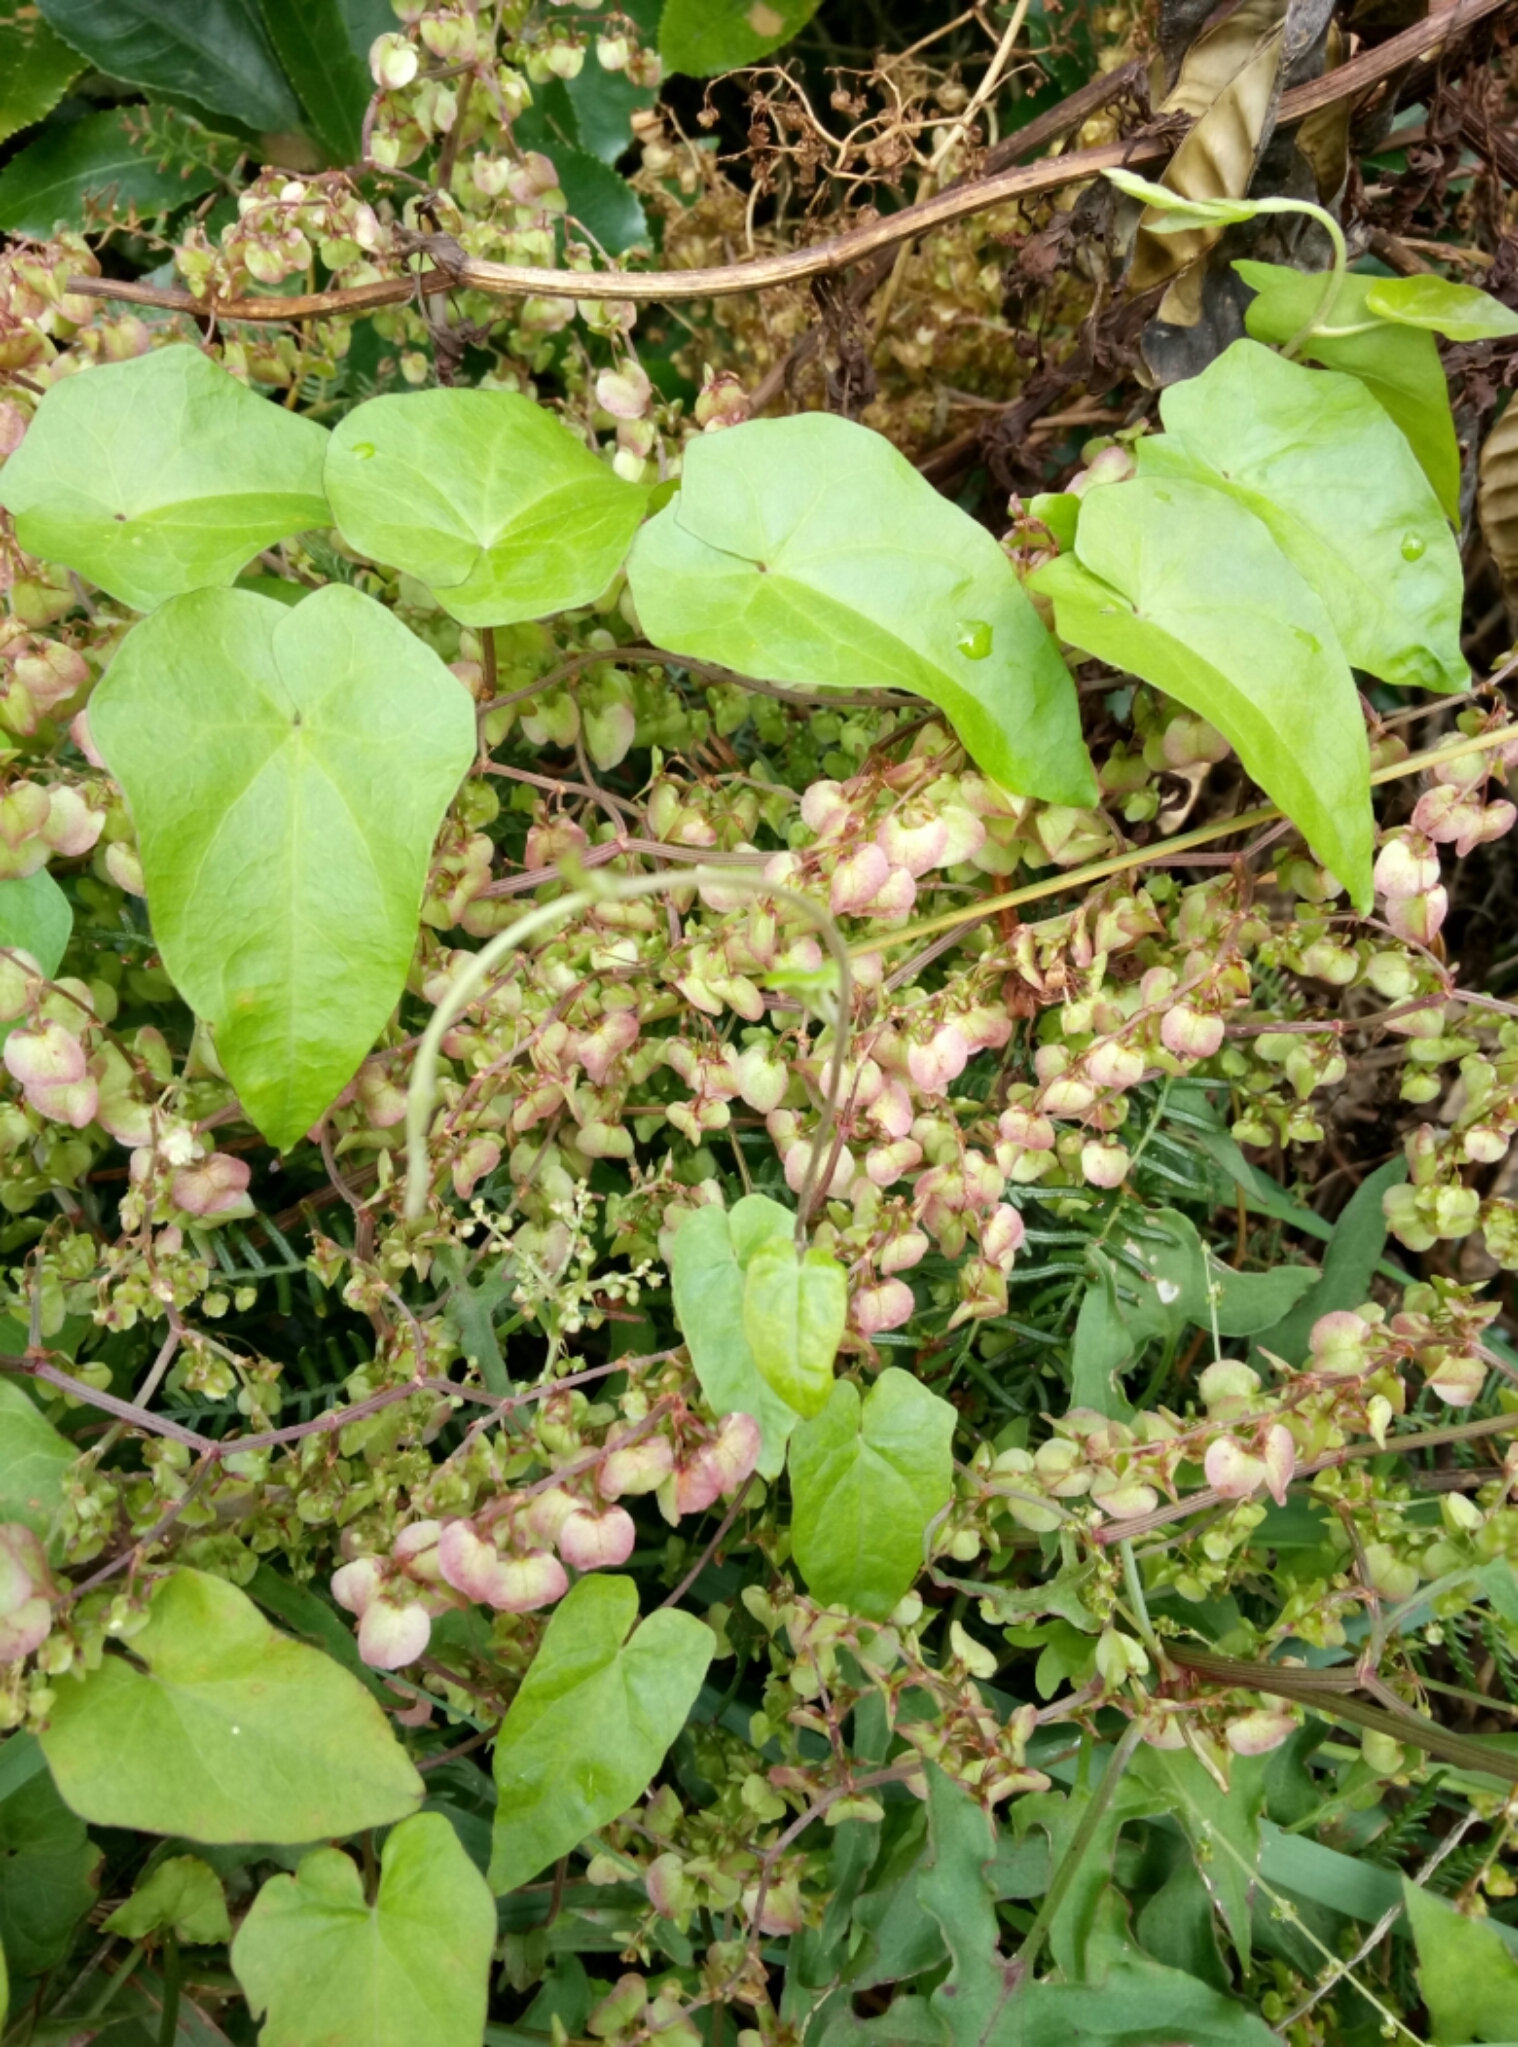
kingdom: Plantae
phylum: Tracheophyta
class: Magnoliopsida
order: Caryophyllales
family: Polygonaceae
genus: Rumex
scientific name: Rumex sagittatus
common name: Climbing dock
